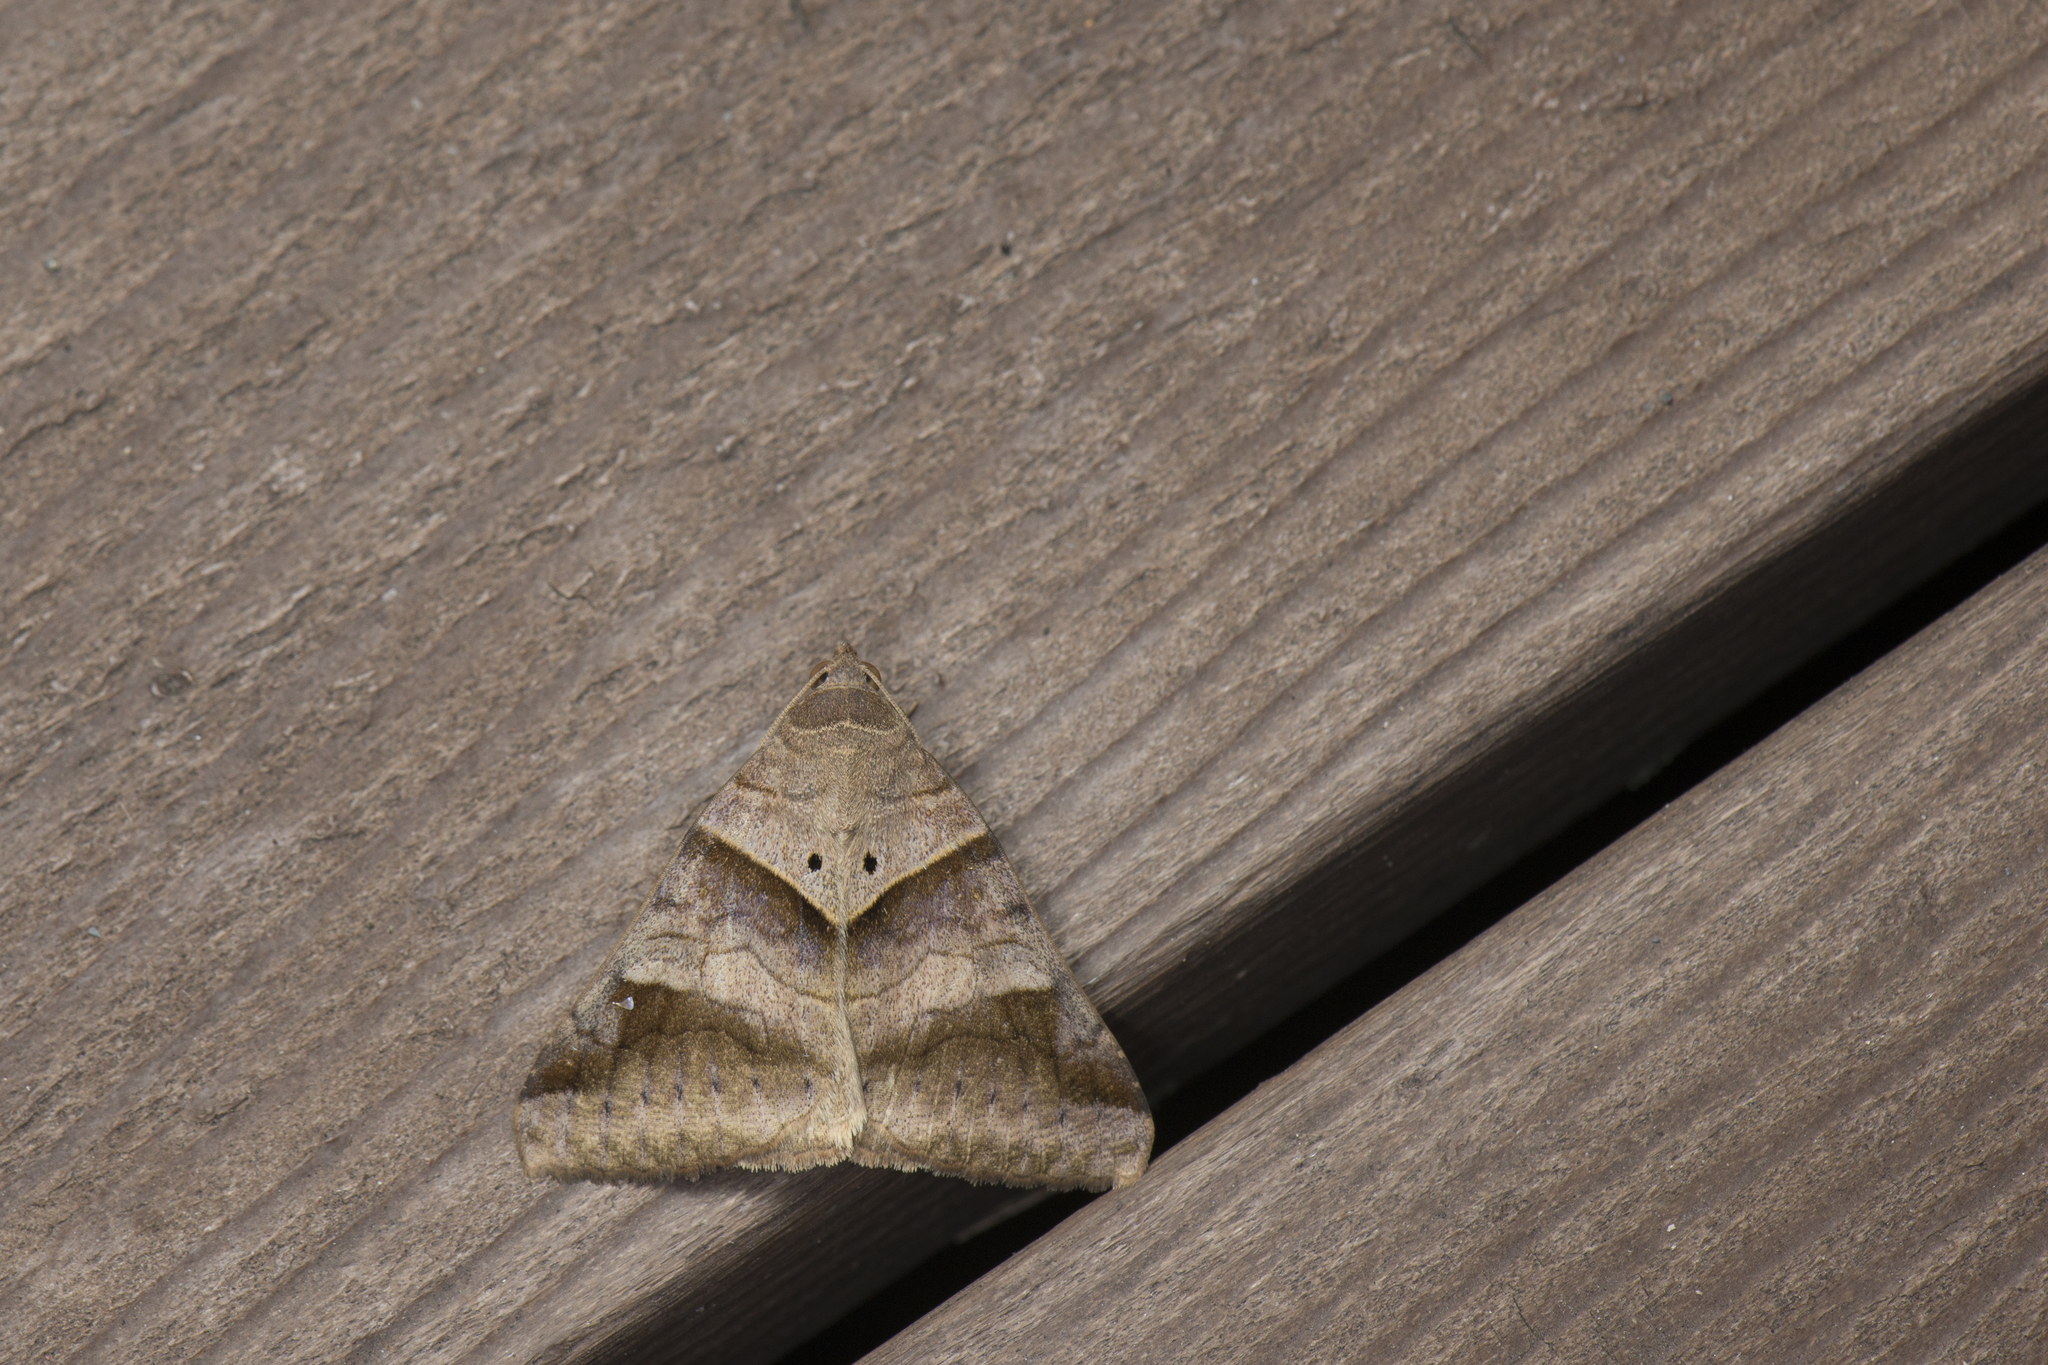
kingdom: Animalia
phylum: Arthropoda
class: Insecta
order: Lepidoptera
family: Erebidae
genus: Mocis
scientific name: Mocis undata
